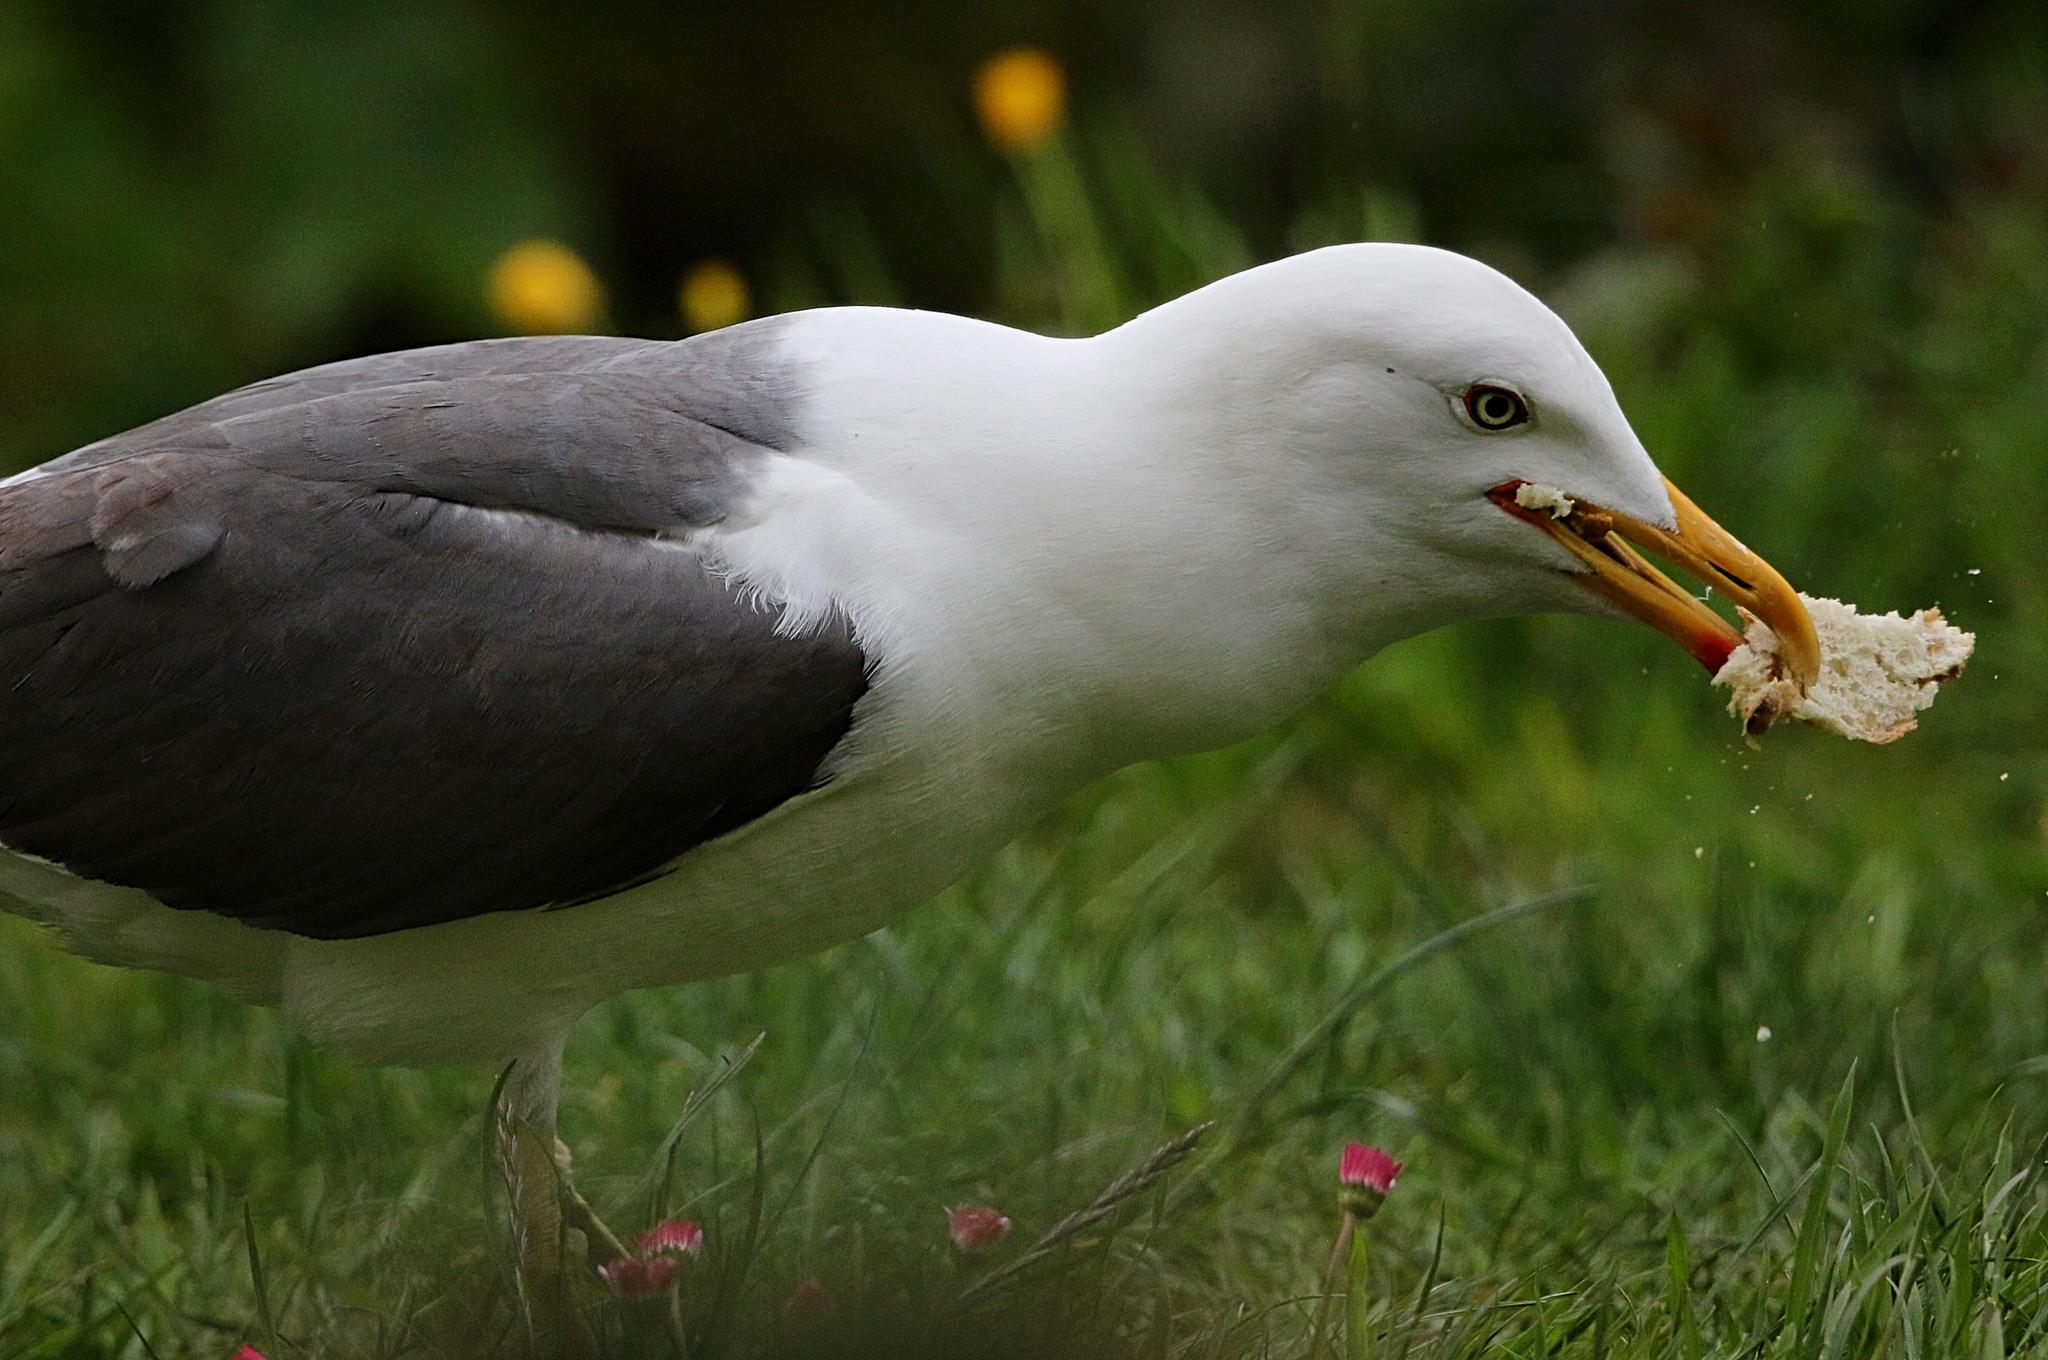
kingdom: Animalia
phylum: Chordata
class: Aves
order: Charadriiformes
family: Laridae
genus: Larus
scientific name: Larus fuscus
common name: Lesser black-backed gull
